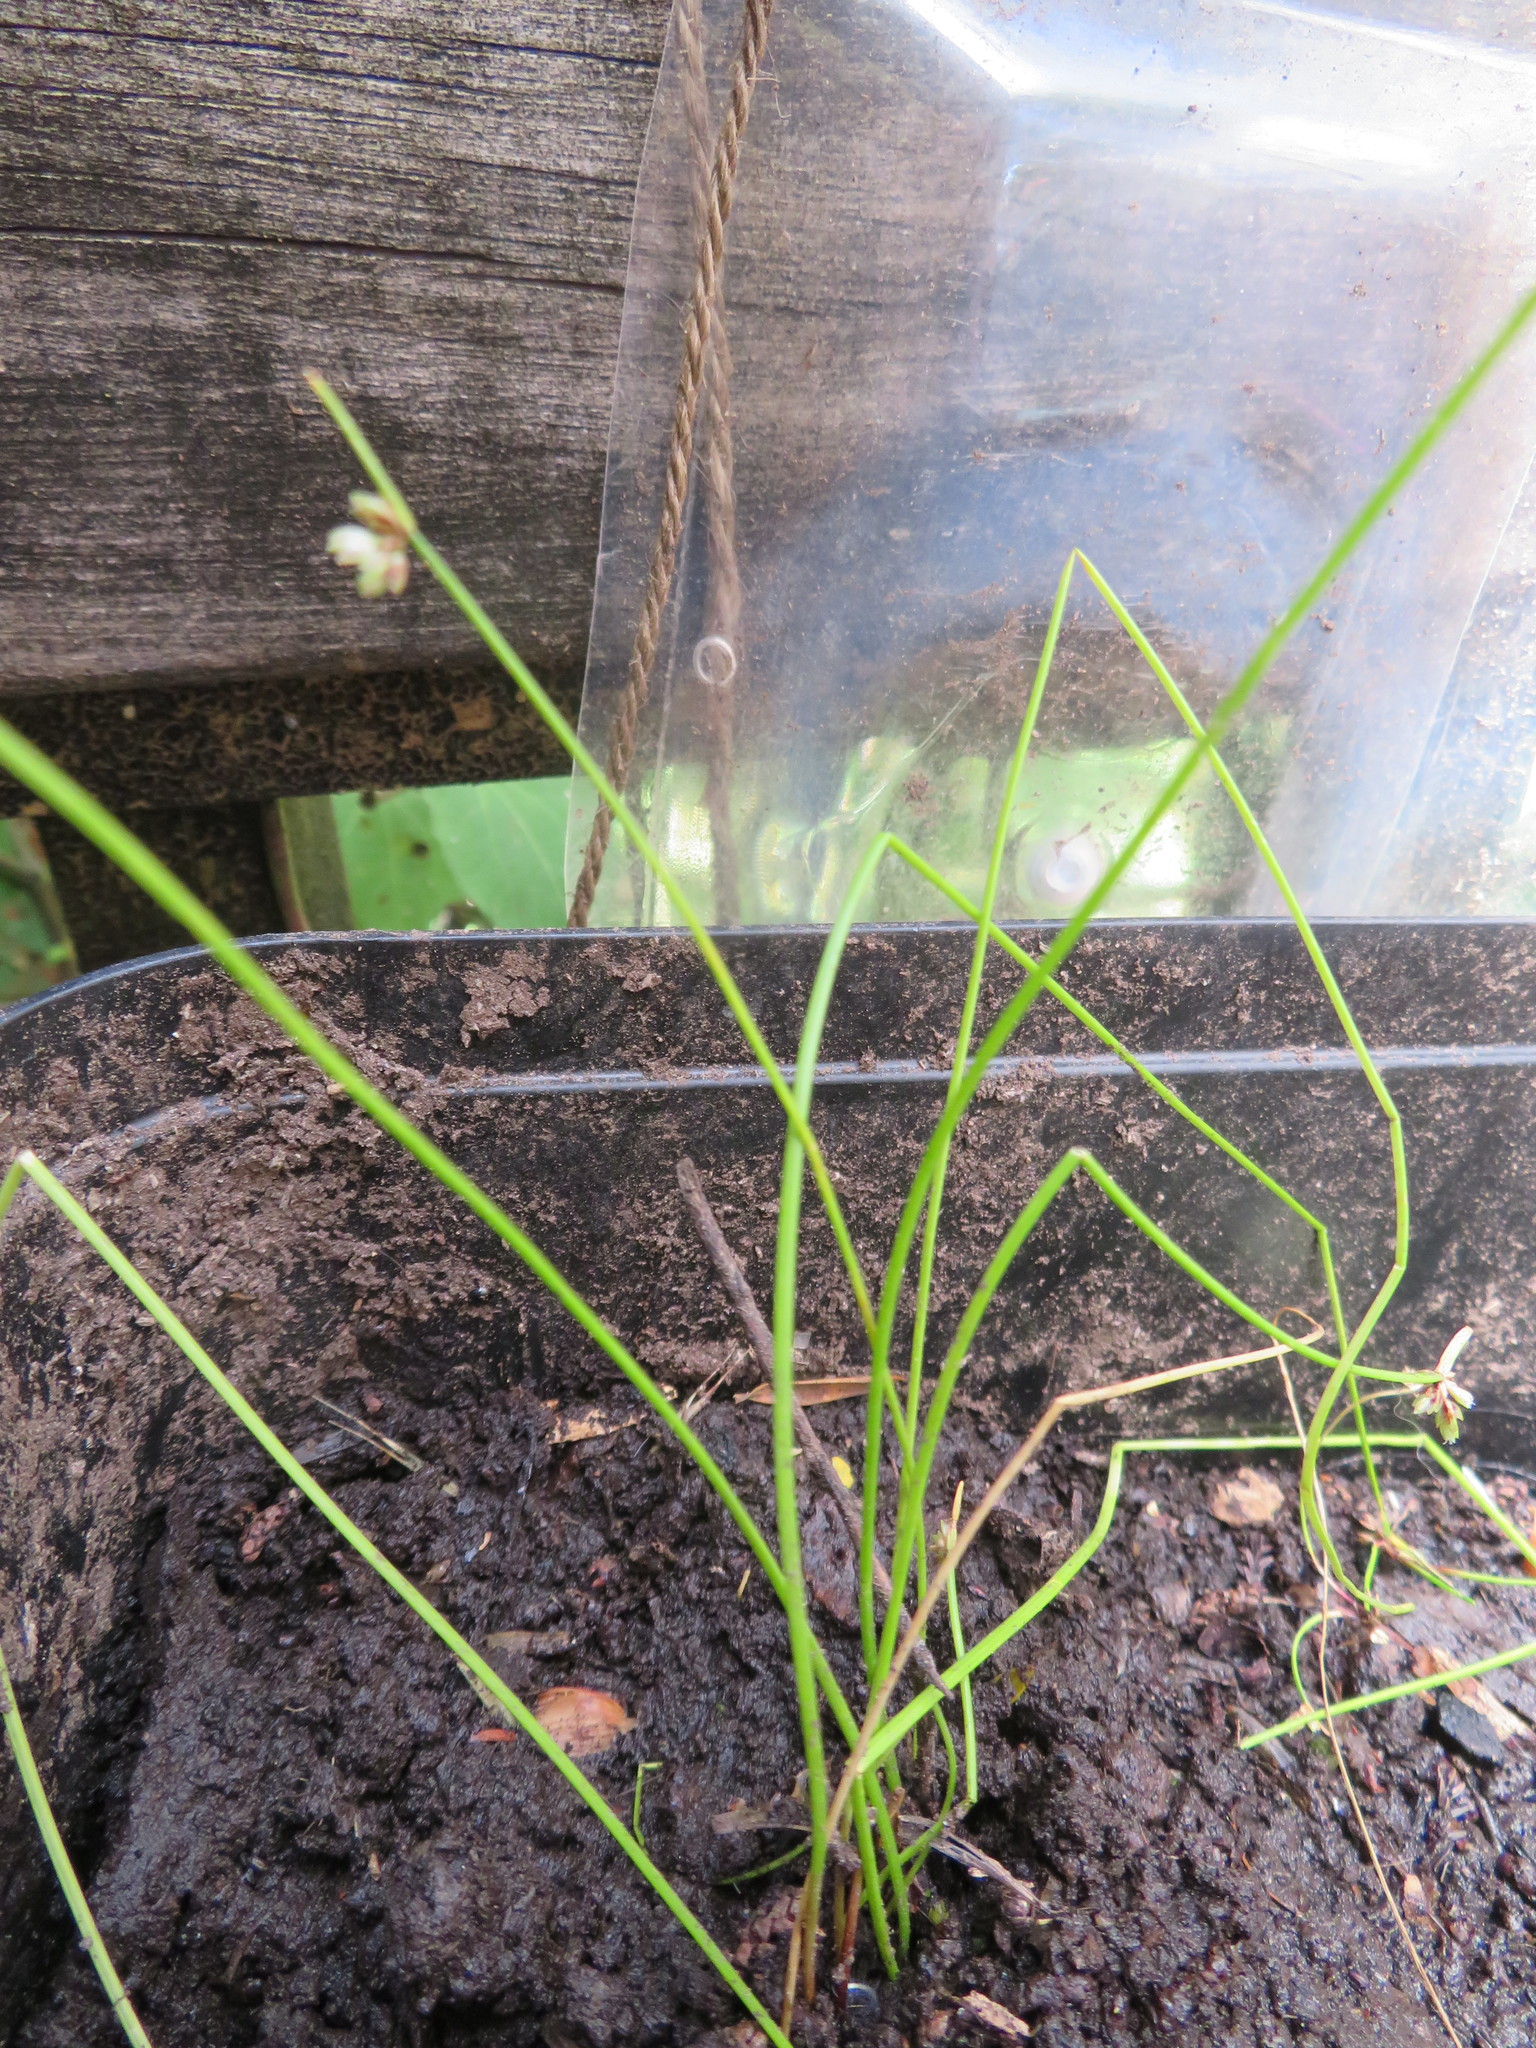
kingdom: Plantae
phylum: Tracheophyta
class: Liliopsida
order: Poales
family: Cyperaceae
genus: Isolepis
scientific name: Isolepis inundata
